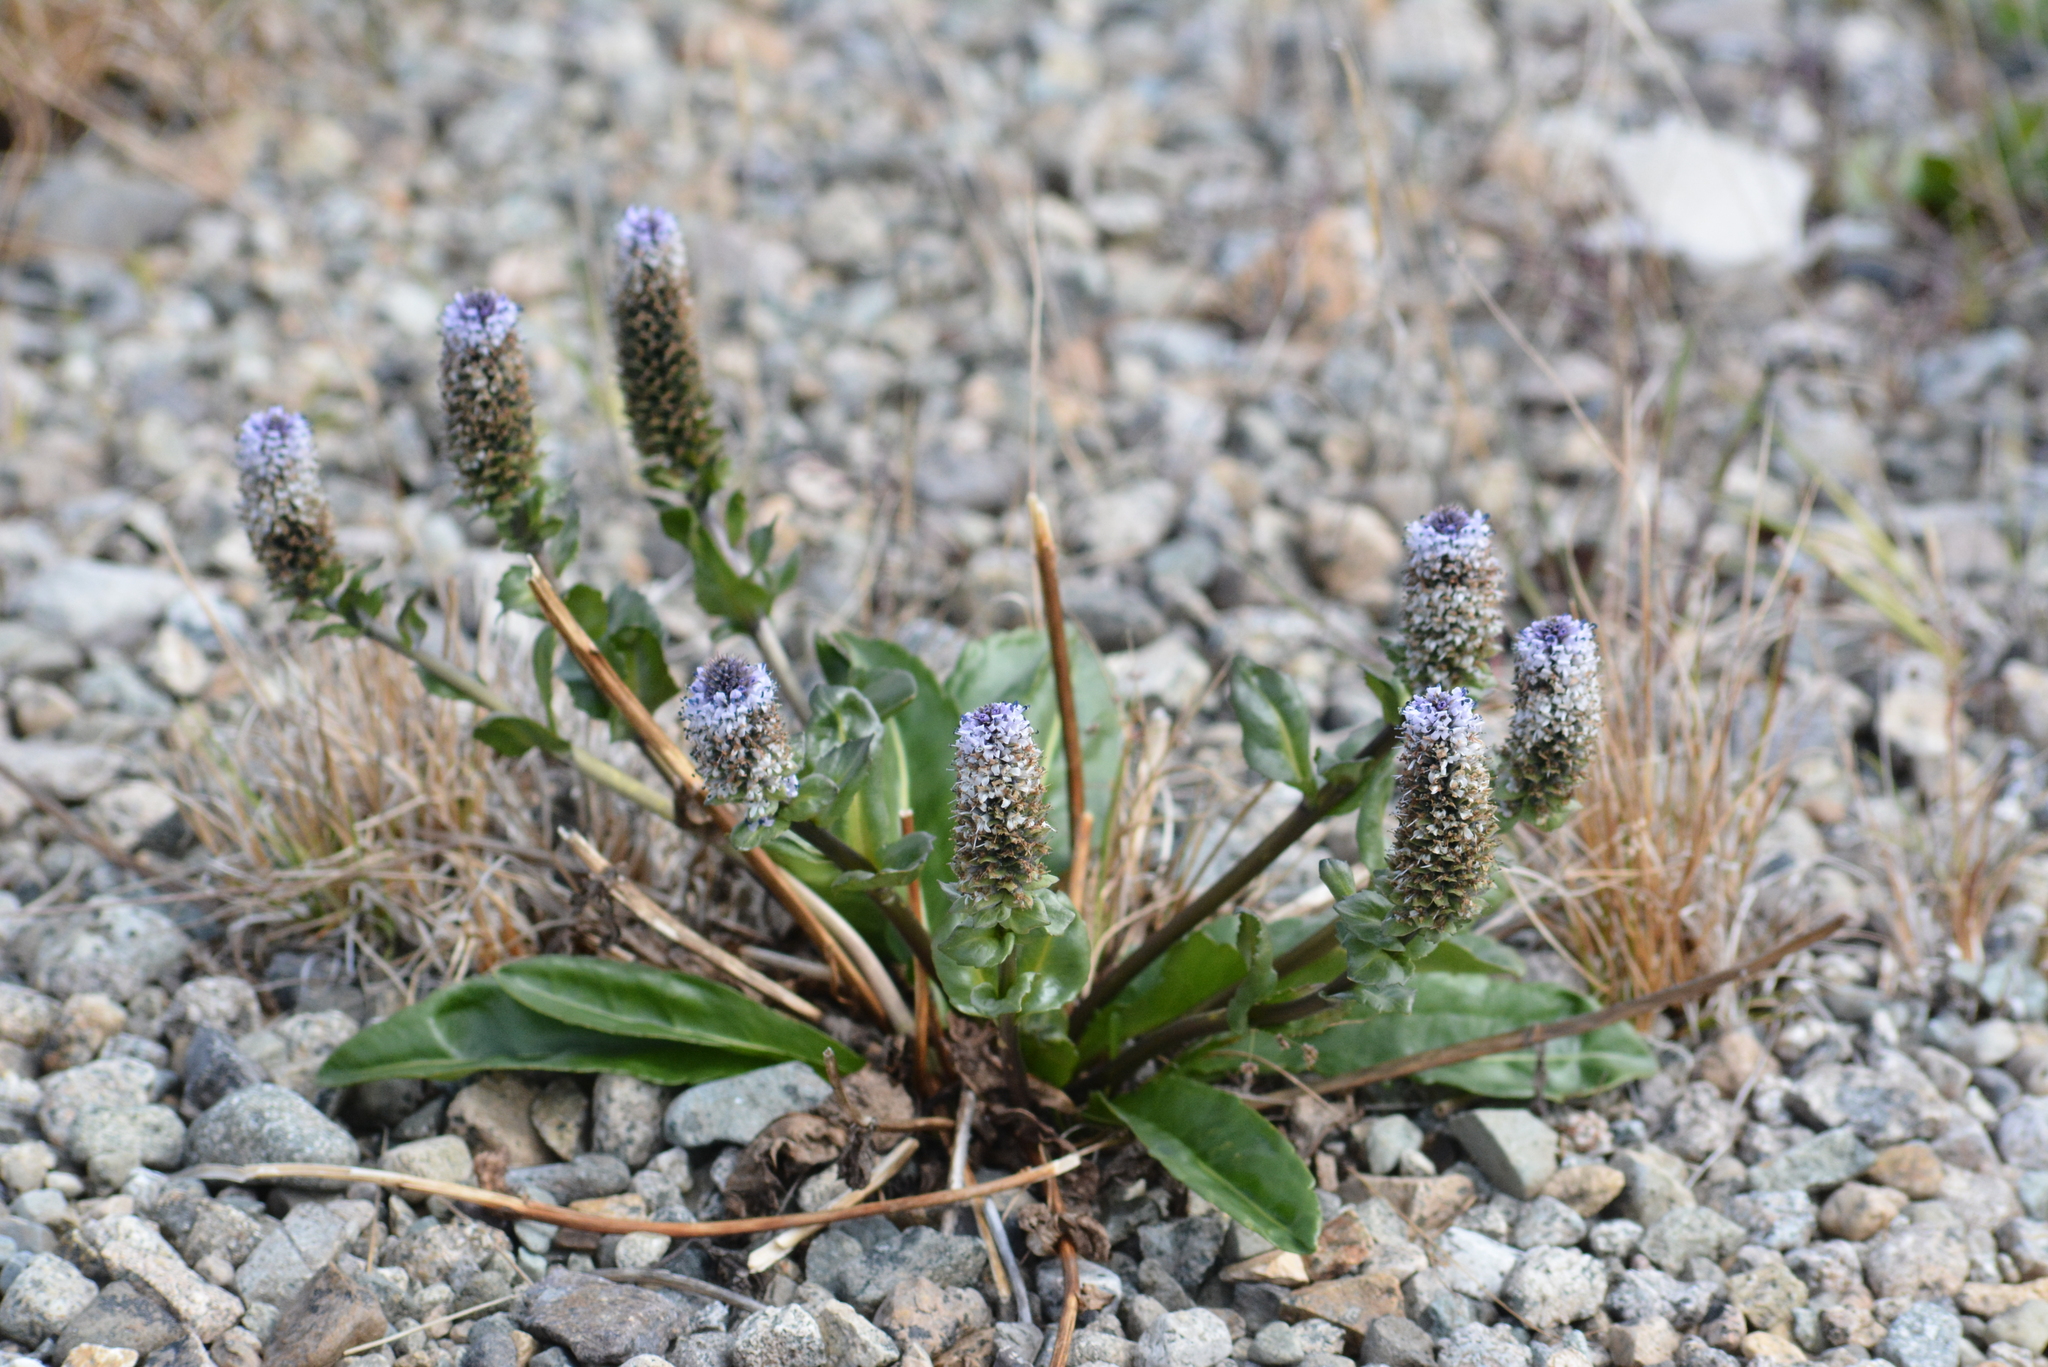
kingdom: Plantae
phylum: Tracheophyta
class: Magnoliopsida
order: Lamiales
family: Plantaginaceae
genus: Lagotis
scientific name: Lagotis glauca
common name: Glaucous weaselsnout
